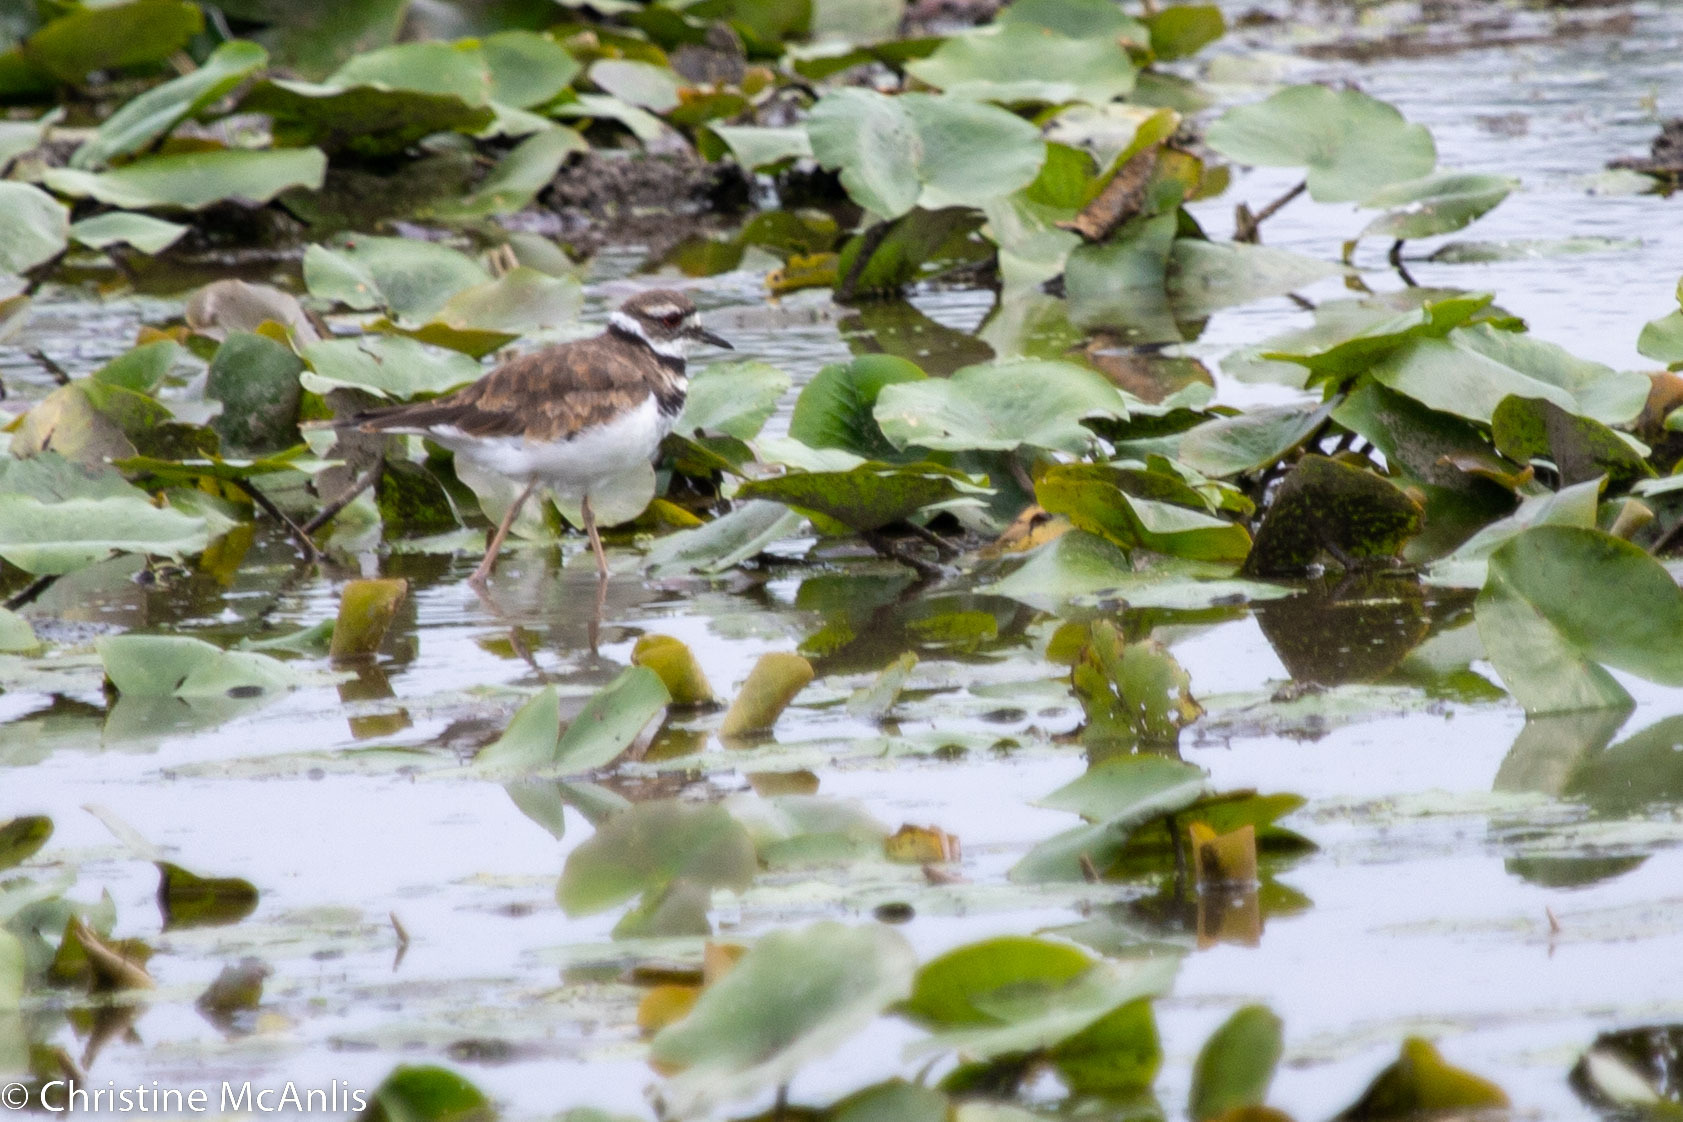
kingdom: Animalia
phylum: Chordata
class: Aves
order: Charadriiformes
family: Charadriidae
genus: Charadrius
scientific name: Charadrius vociferus
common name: Killdeer
